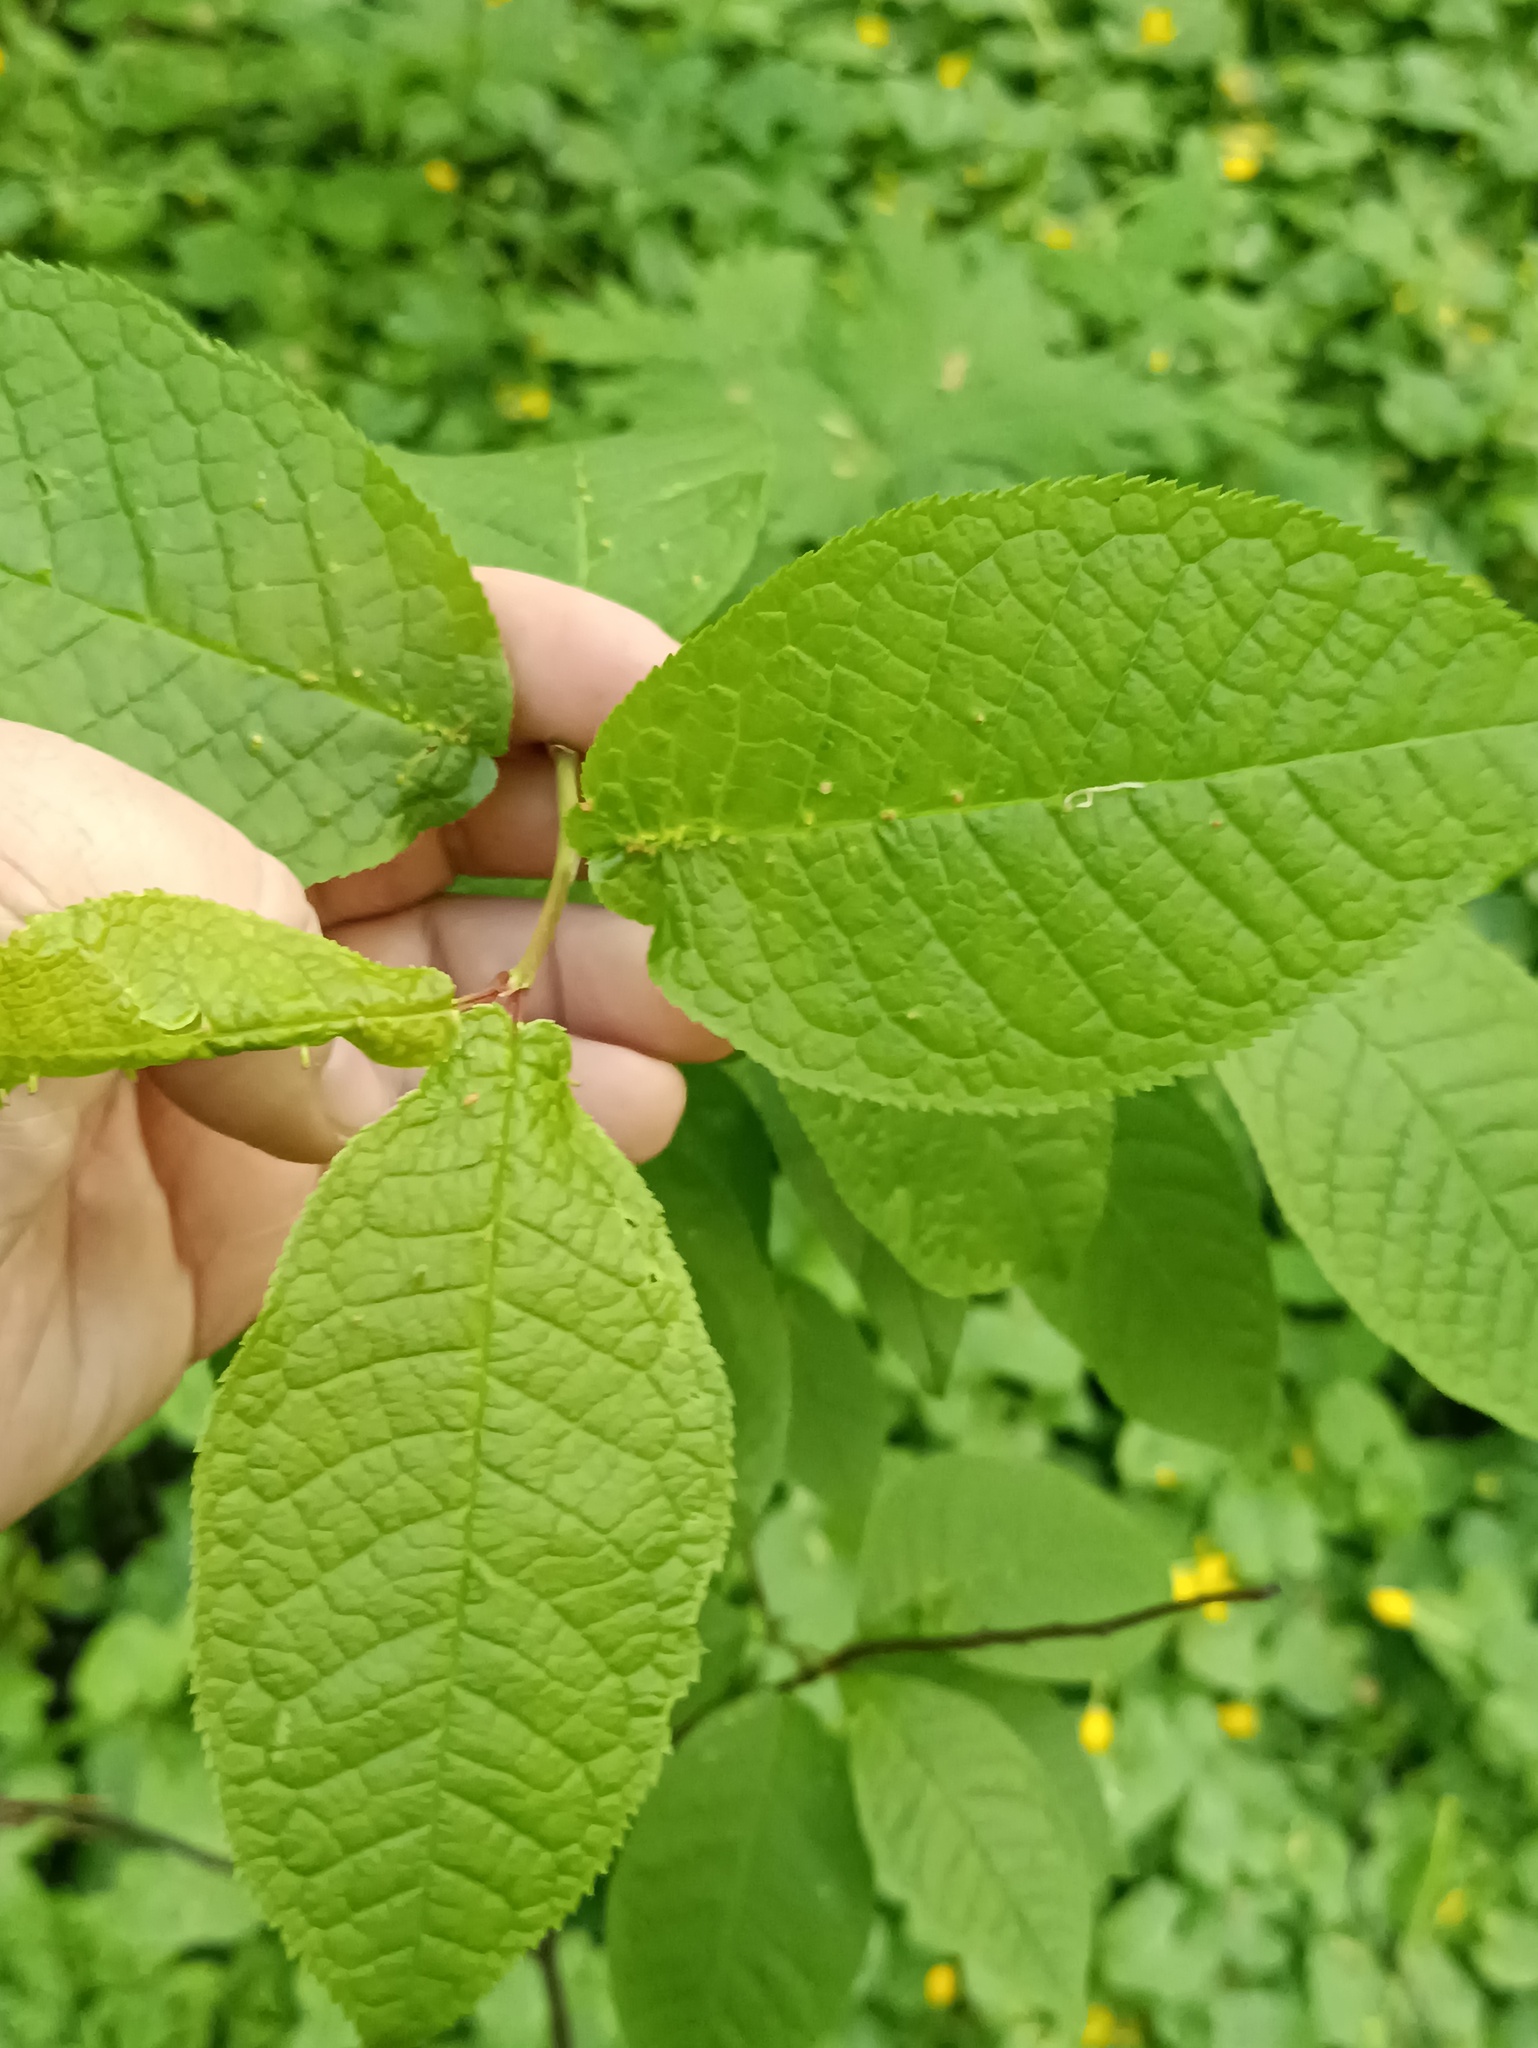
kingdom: Plantae
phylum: Tracheophyta
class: Magnoliopsida
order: Rosales
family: Rosaceae
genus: Prunus
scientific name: Prunus padus
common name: Bird cherry
